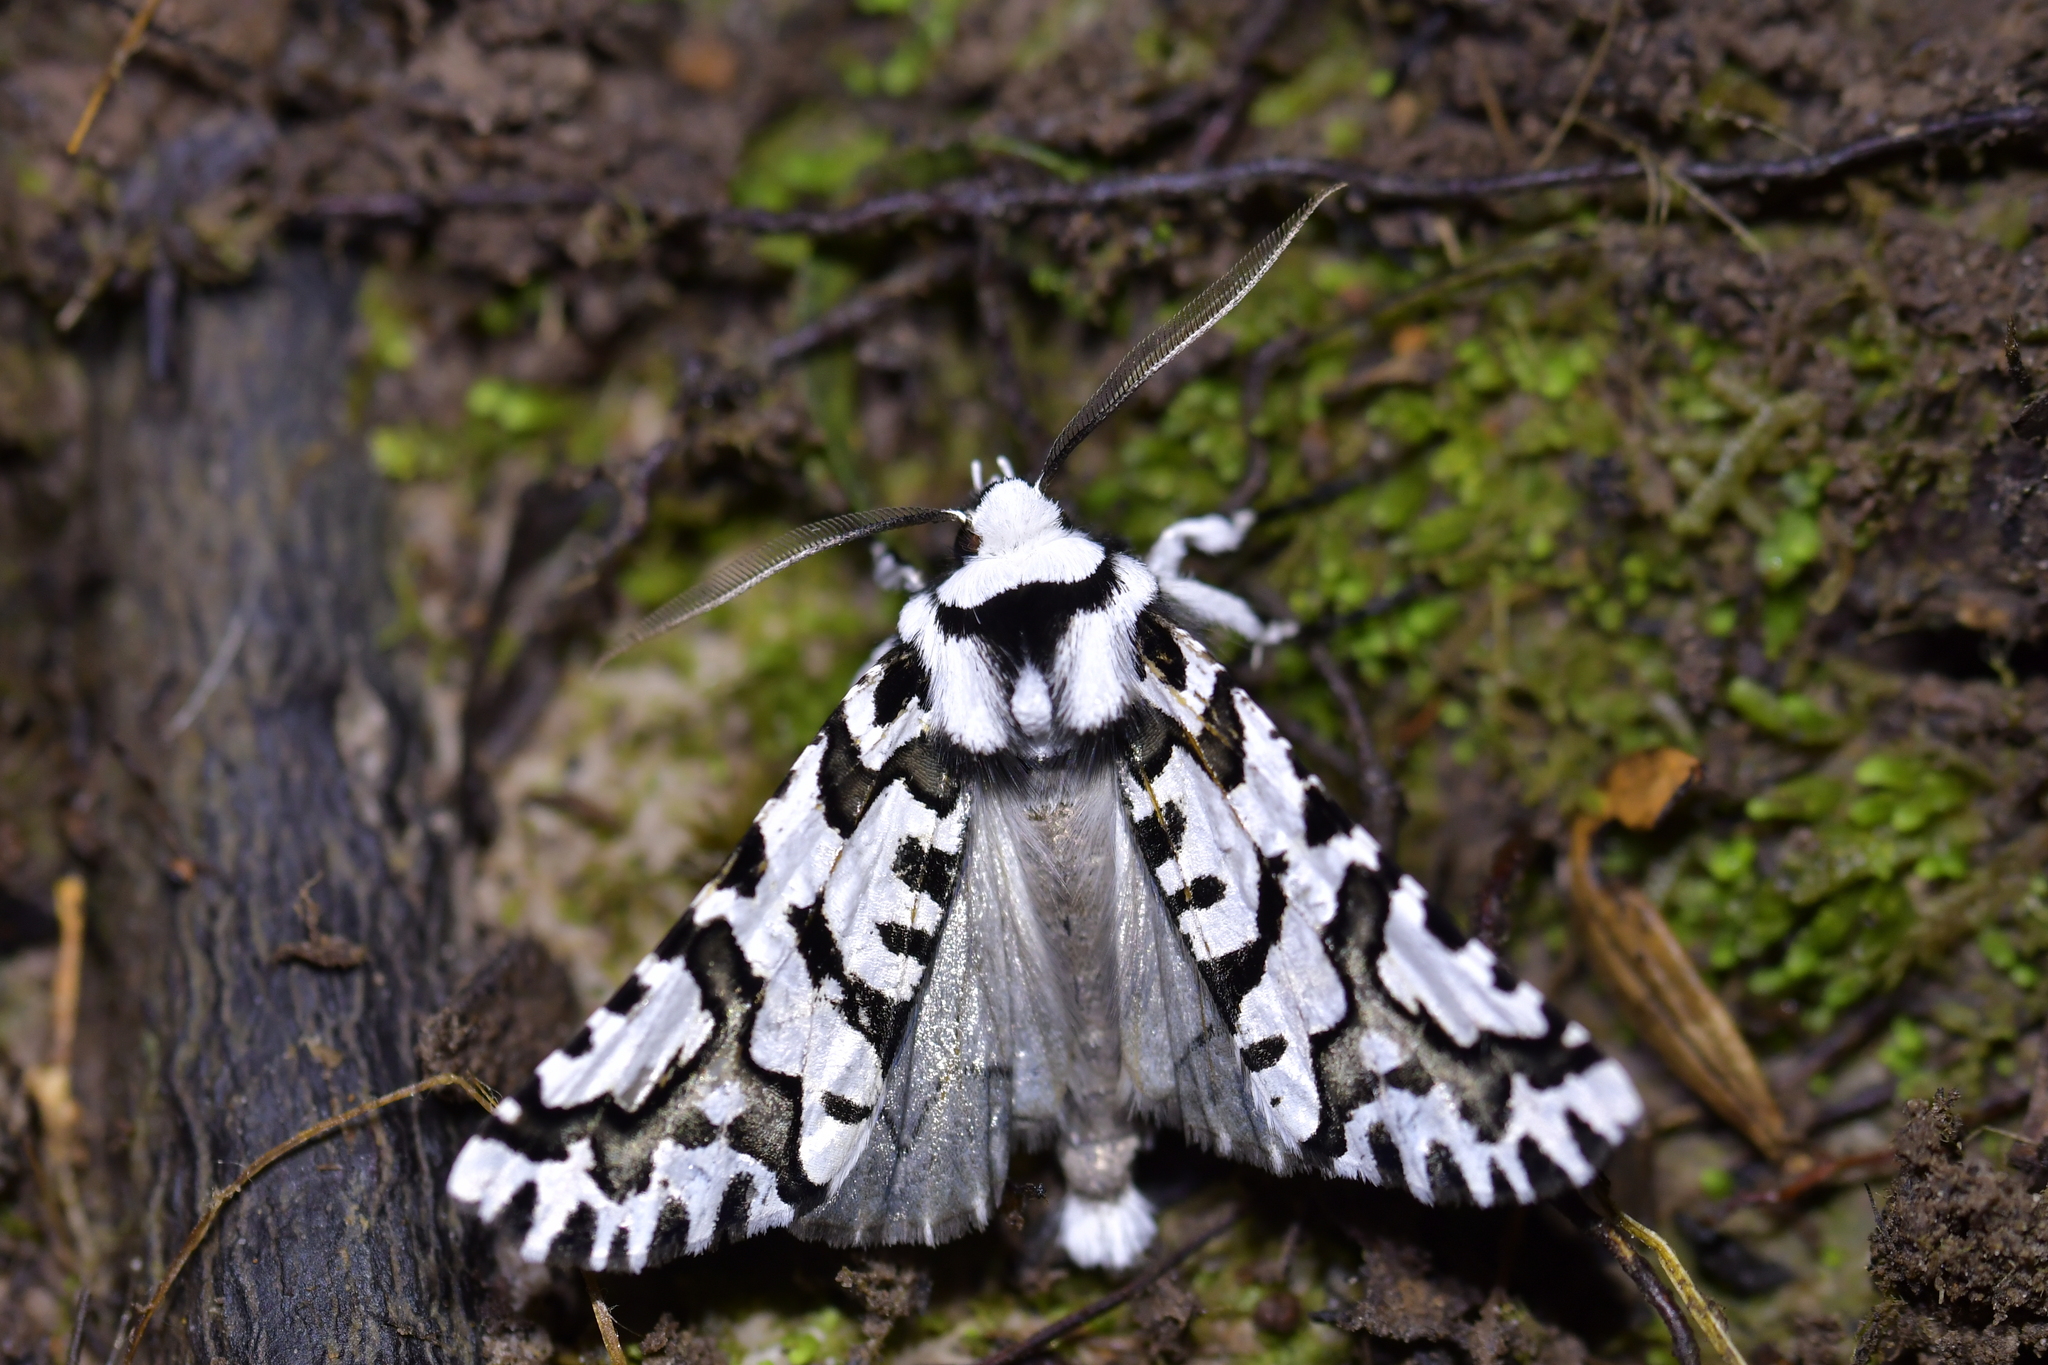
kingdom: Animalia
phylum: Arthropoda
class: Insecta
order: Lepidoptera
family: Geometridae
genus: Declana
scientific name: Declana
